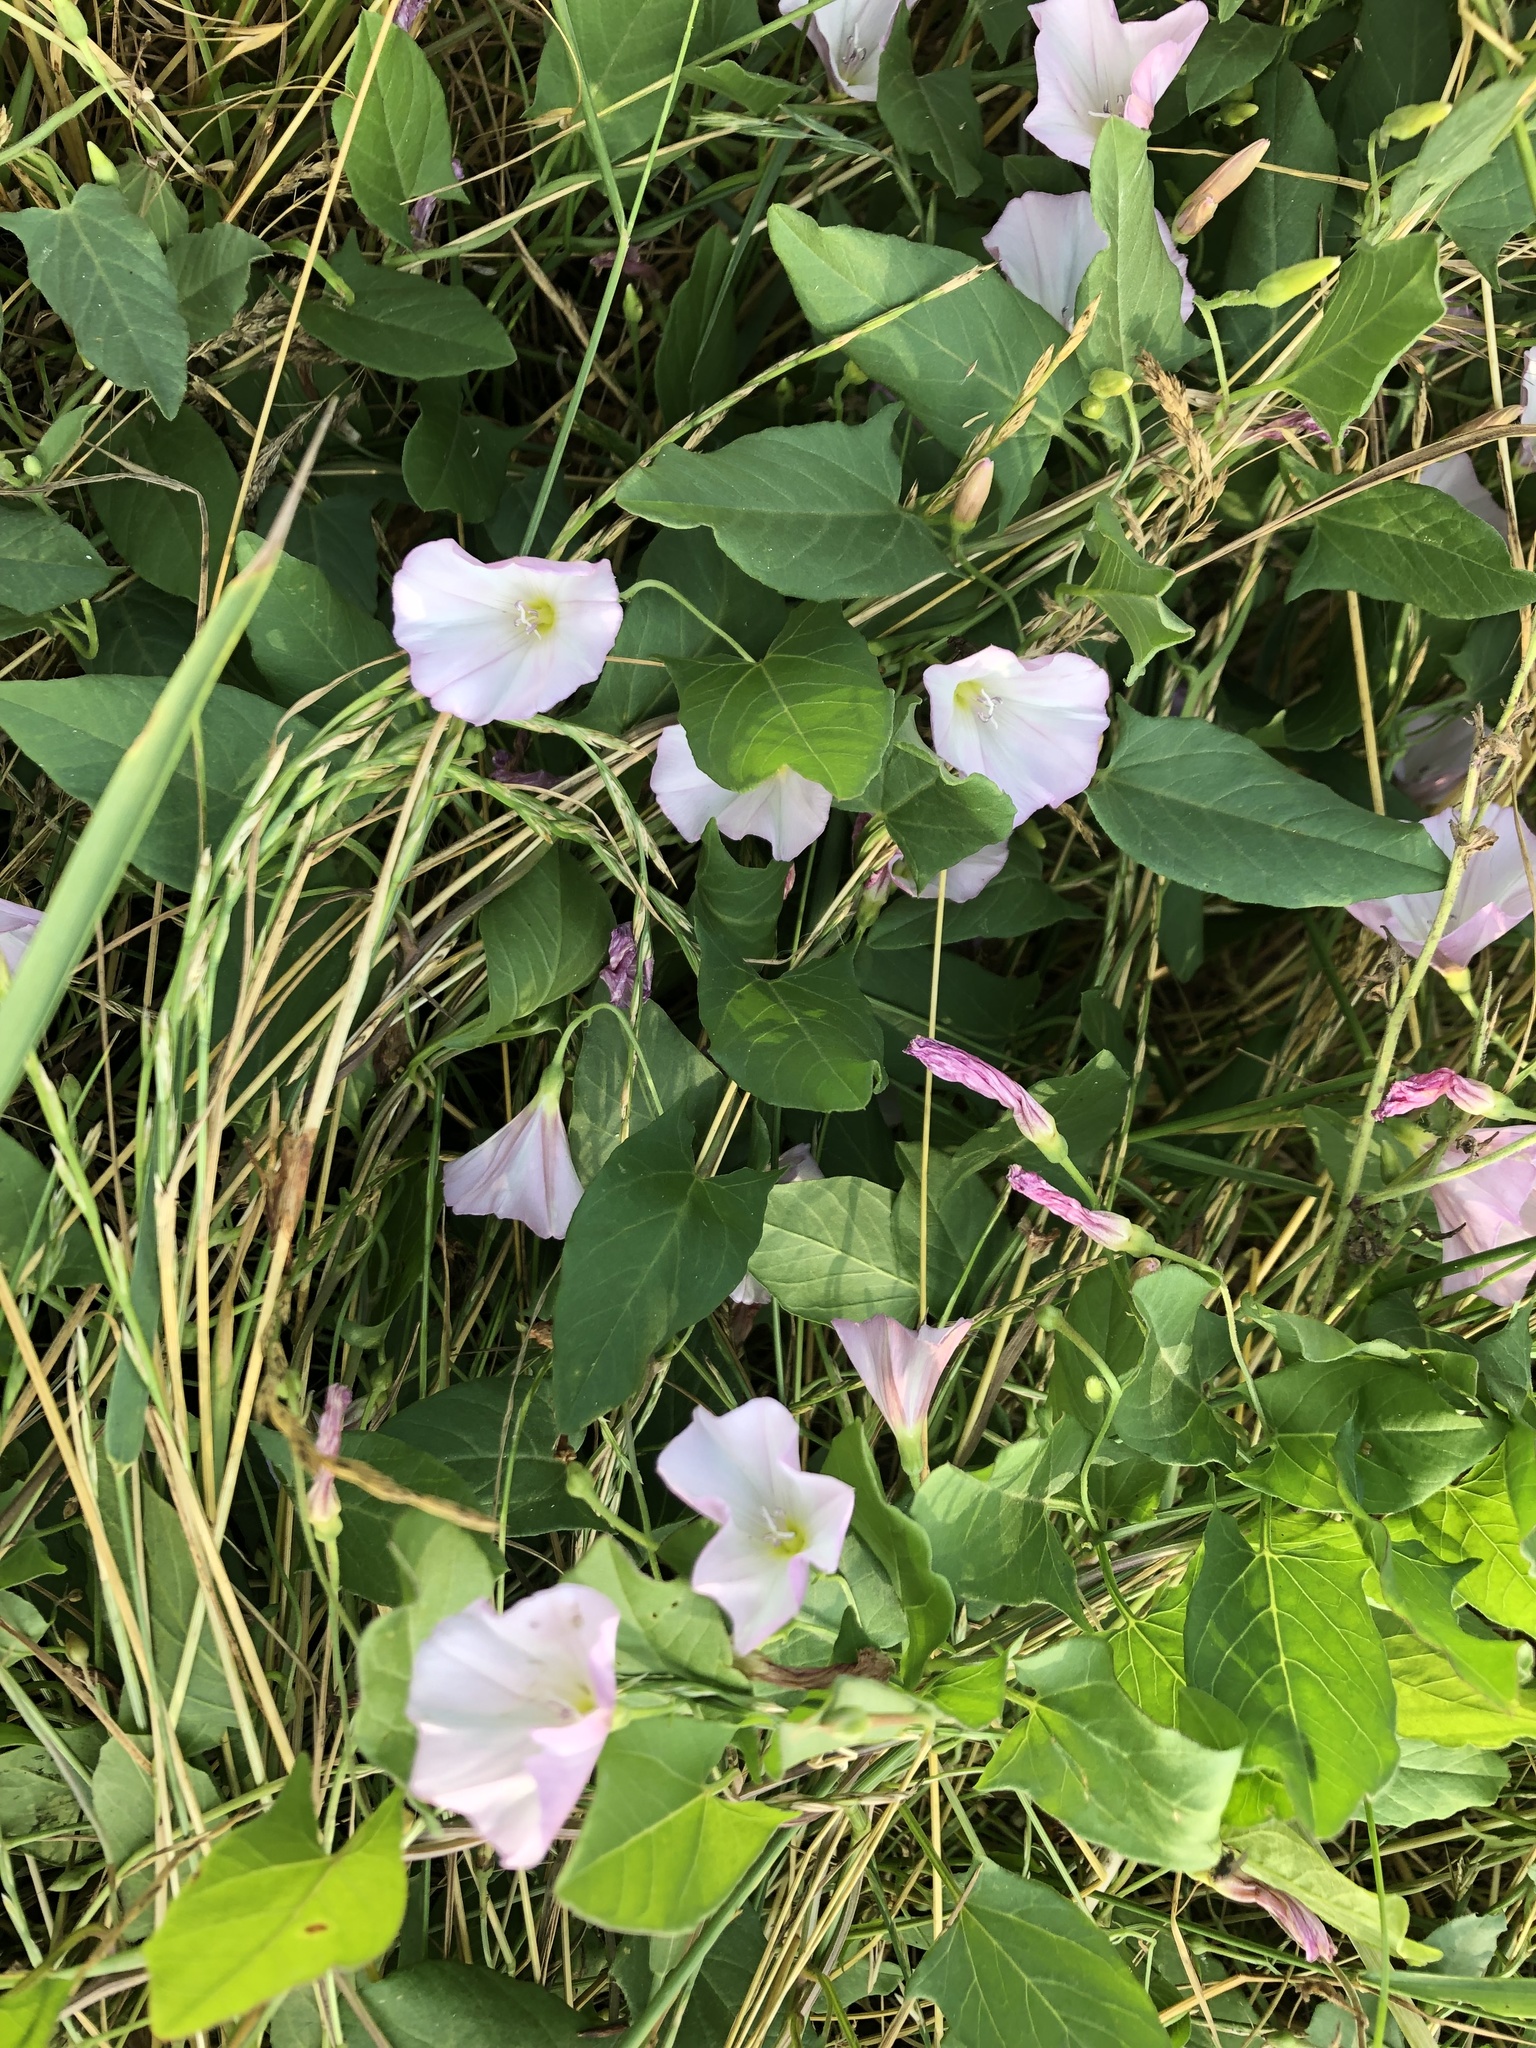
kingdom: Plantae
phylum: Tracheophyta
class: Magnoliopsida
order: Solanales
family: Convolvulaceae
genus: Convolvulus
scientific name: Convolvulus arvensis
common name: Field bindweed
